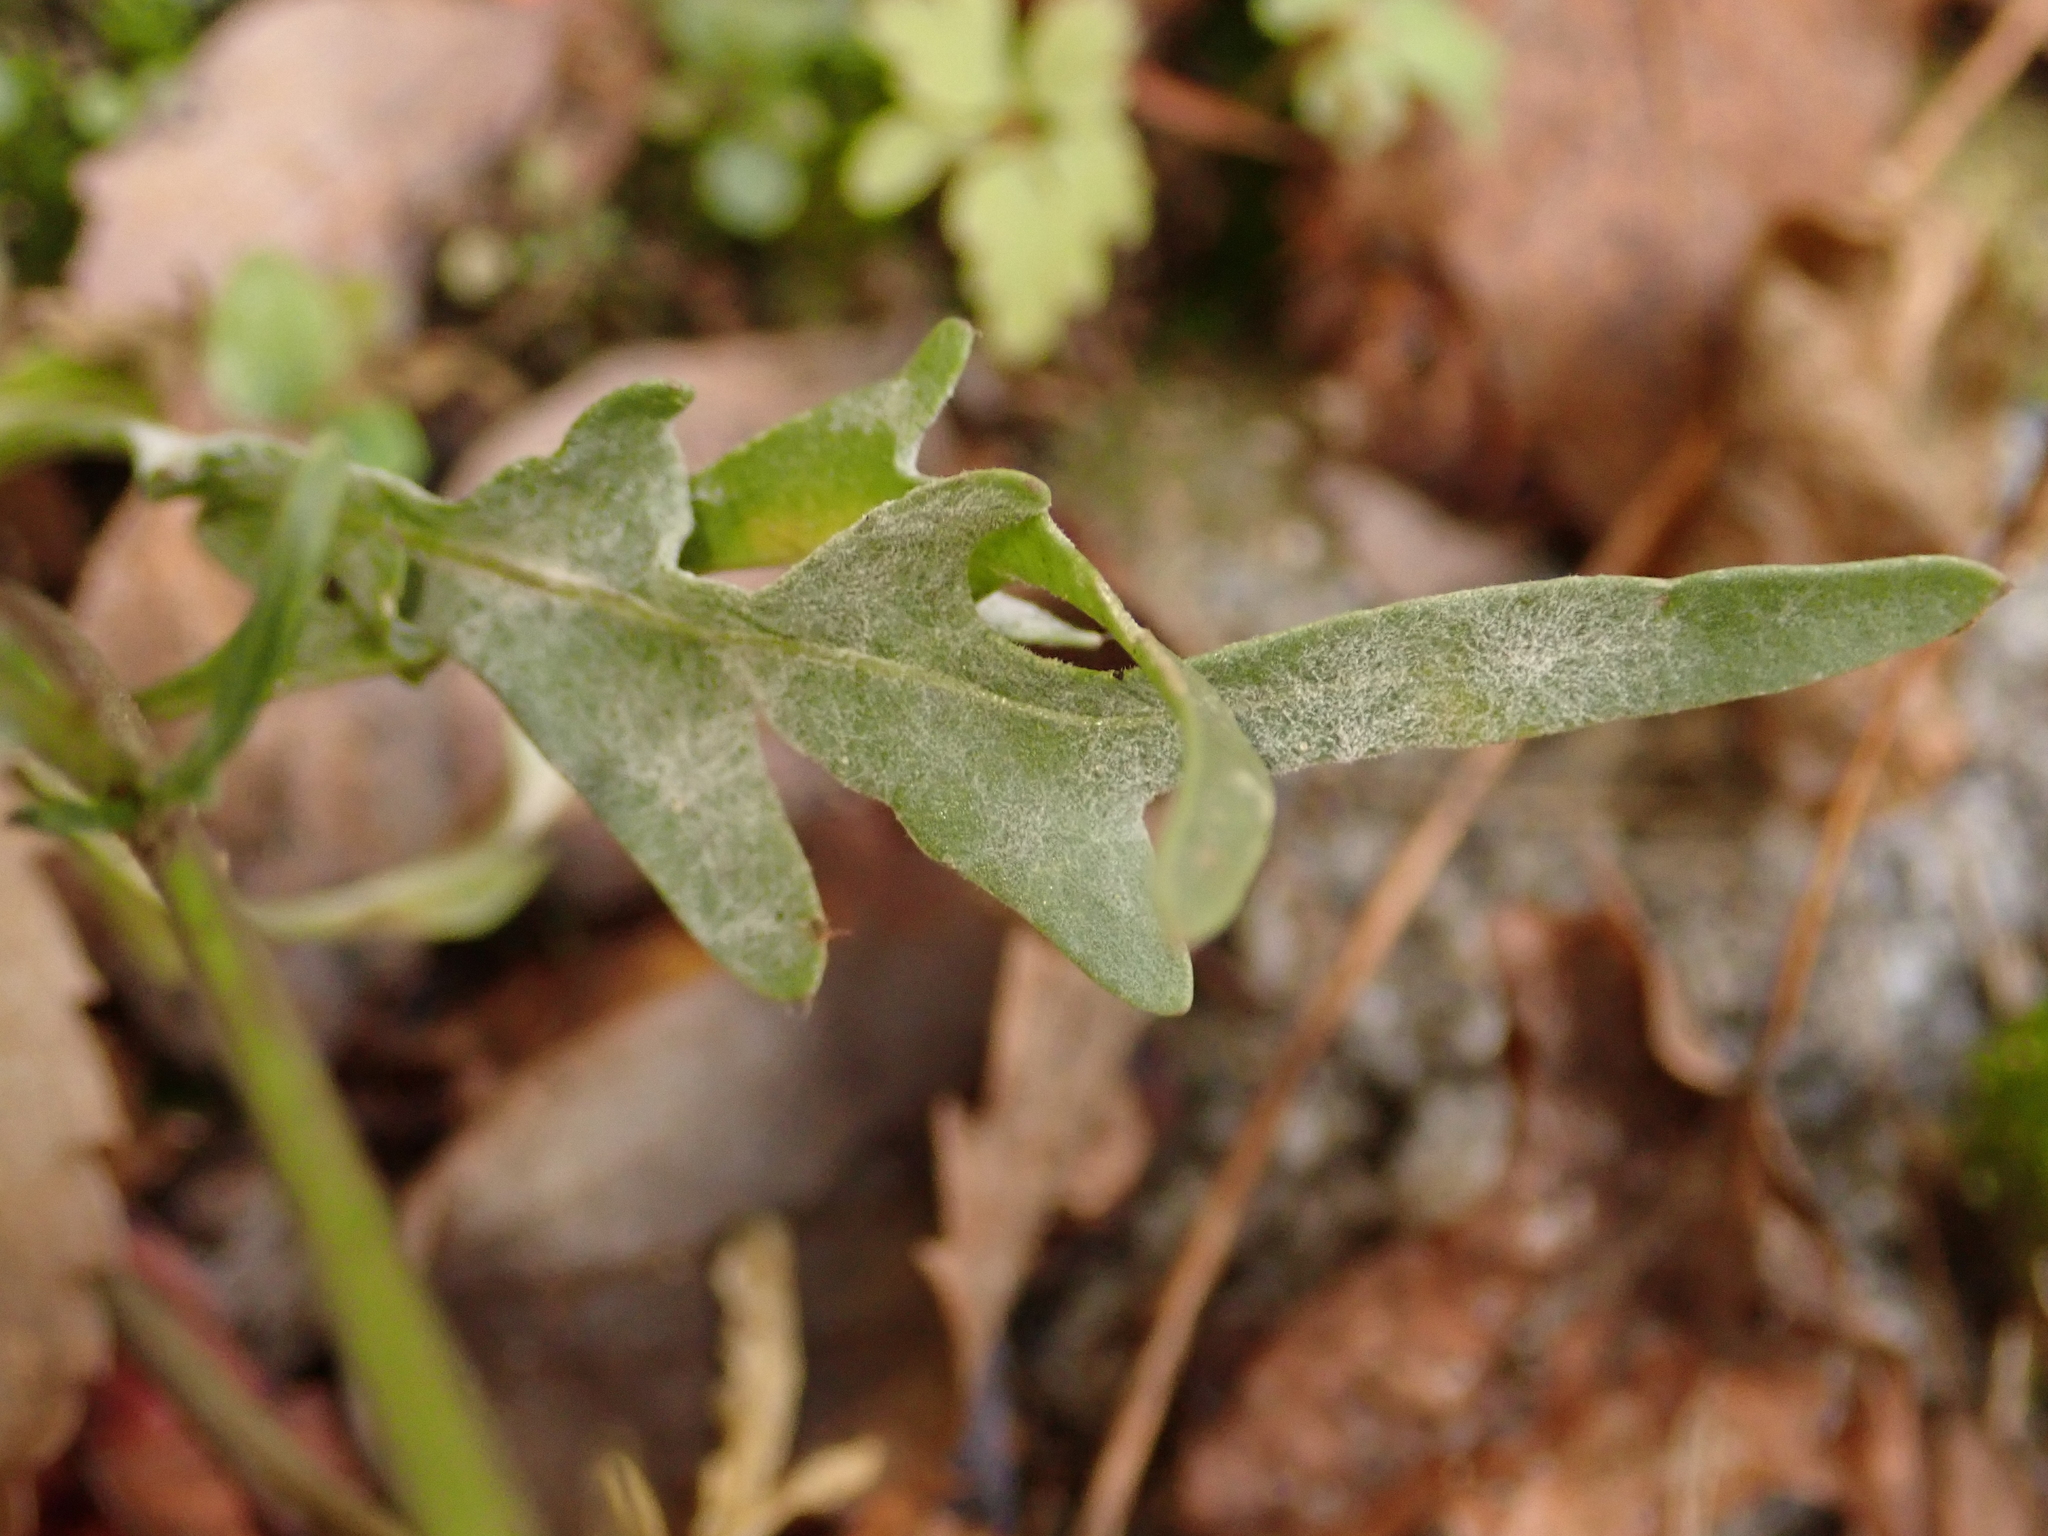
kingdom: Fungi
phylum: Ascomycota
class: Leotiomycetes
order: Helotiales
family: Erysiphaceae
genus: Erysiphe
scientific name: Erysiphe cruciferarum
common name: Brassica powdery mildew
